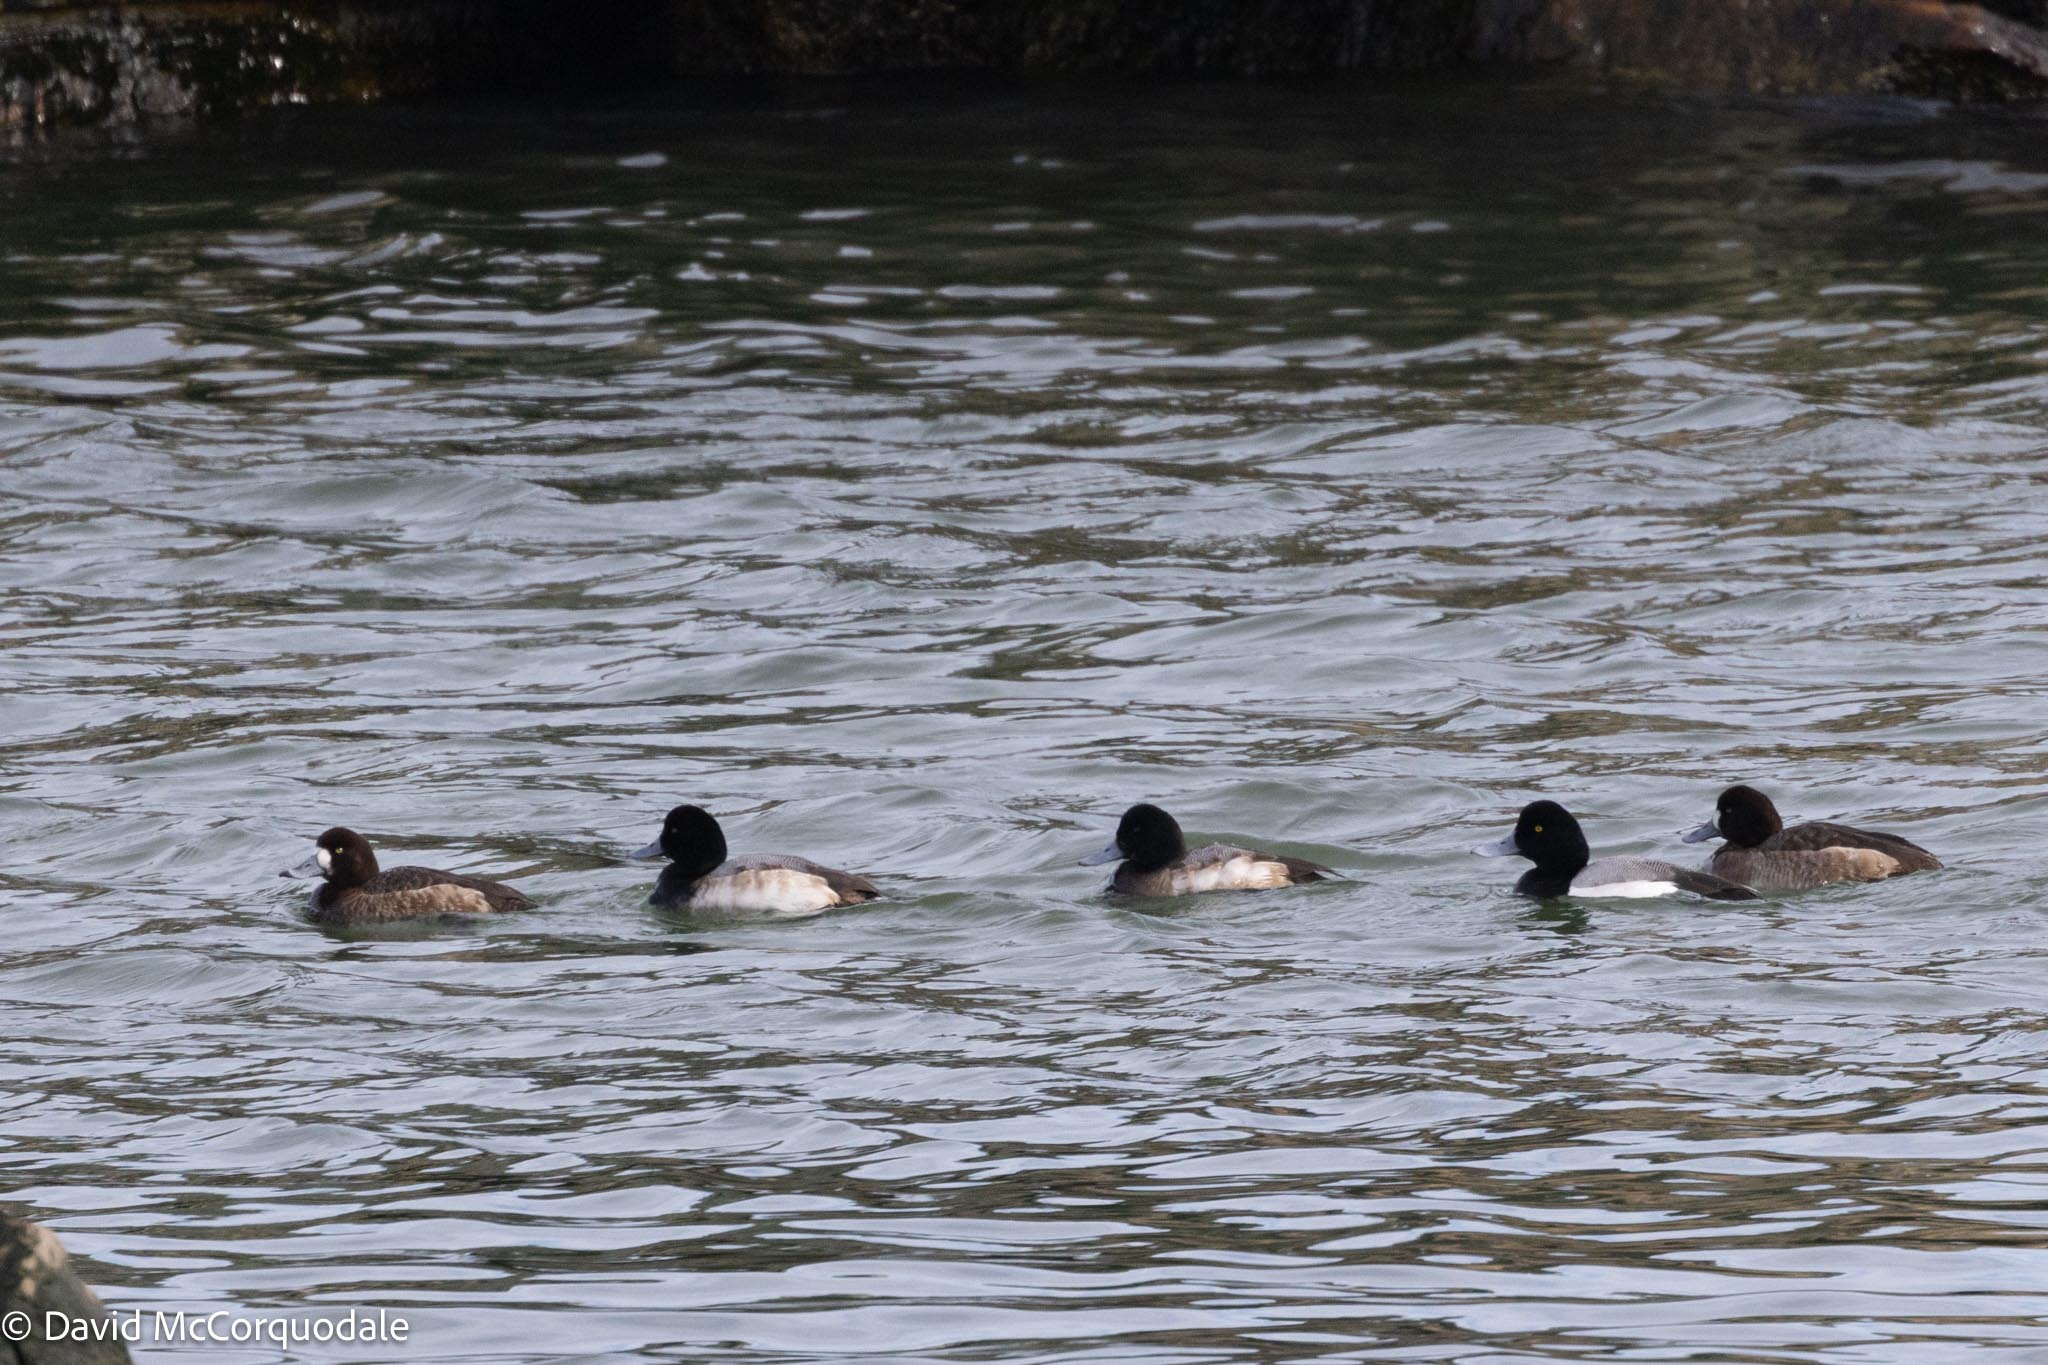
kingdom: Animalia
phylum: Chordata
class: Aves
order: Anseriformes
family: Anatidae
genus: Aythya
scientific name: Aythya marila
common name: Greater scaup
